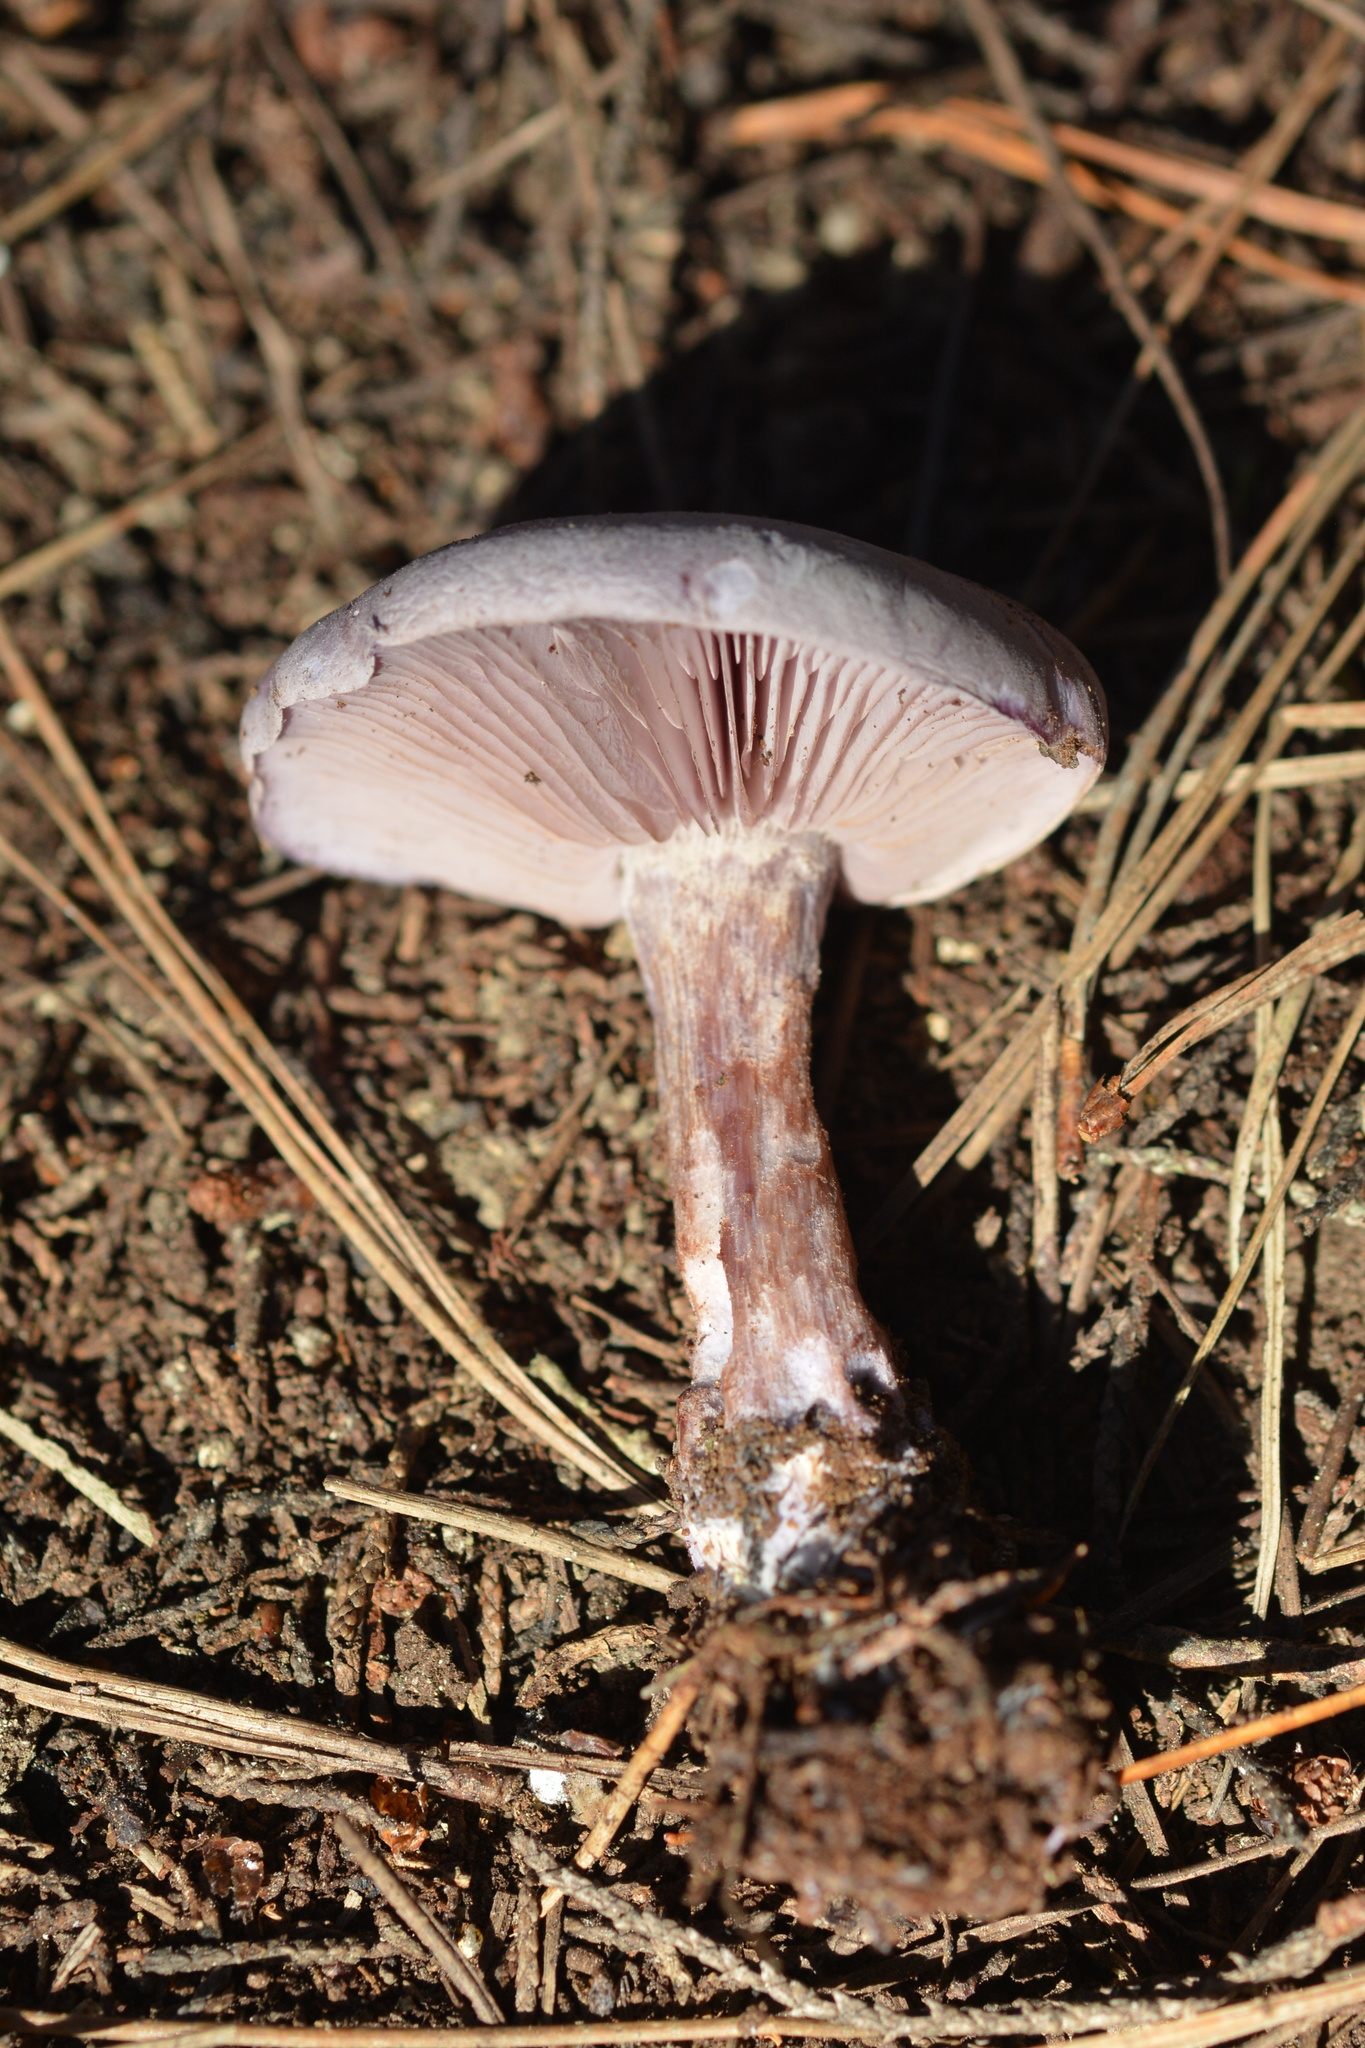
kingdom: Fungi
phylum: Basidiomycota
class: Agaricomycetes
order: Agaricales
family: Tricholomataceae
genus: Collybia
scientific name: Collybia
